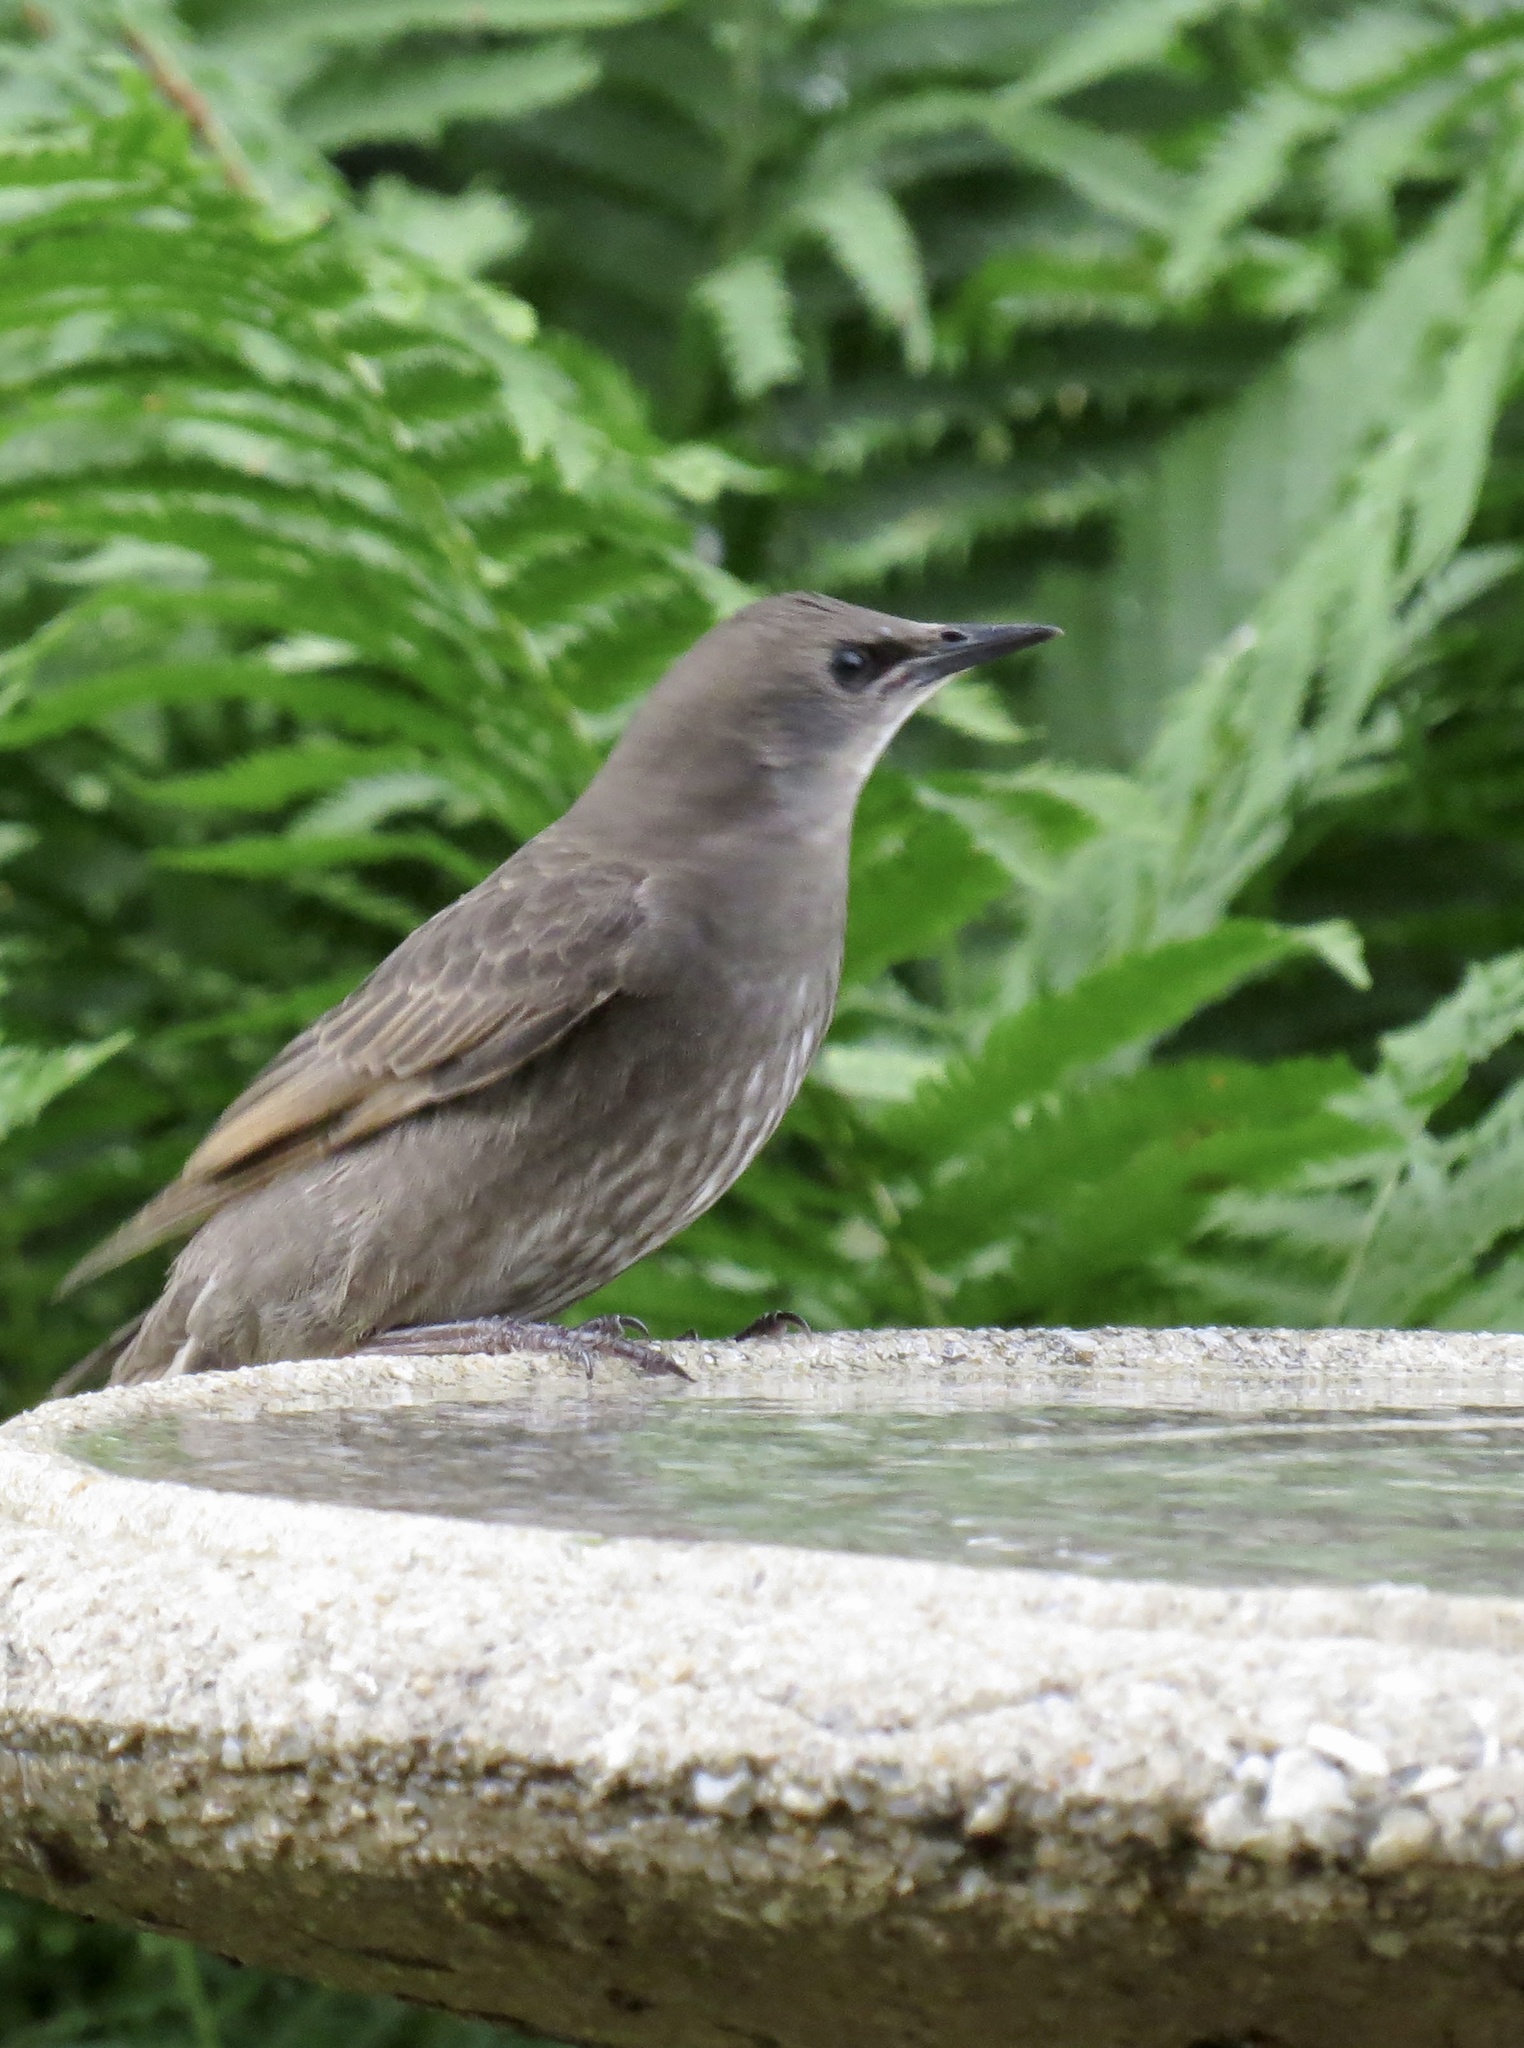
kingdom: Animalia
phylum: Chordata
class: Aves
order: Passeriformes
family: Sturnidae
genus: Sturnus
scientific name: Sturnus vulgaris
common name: Common starling
